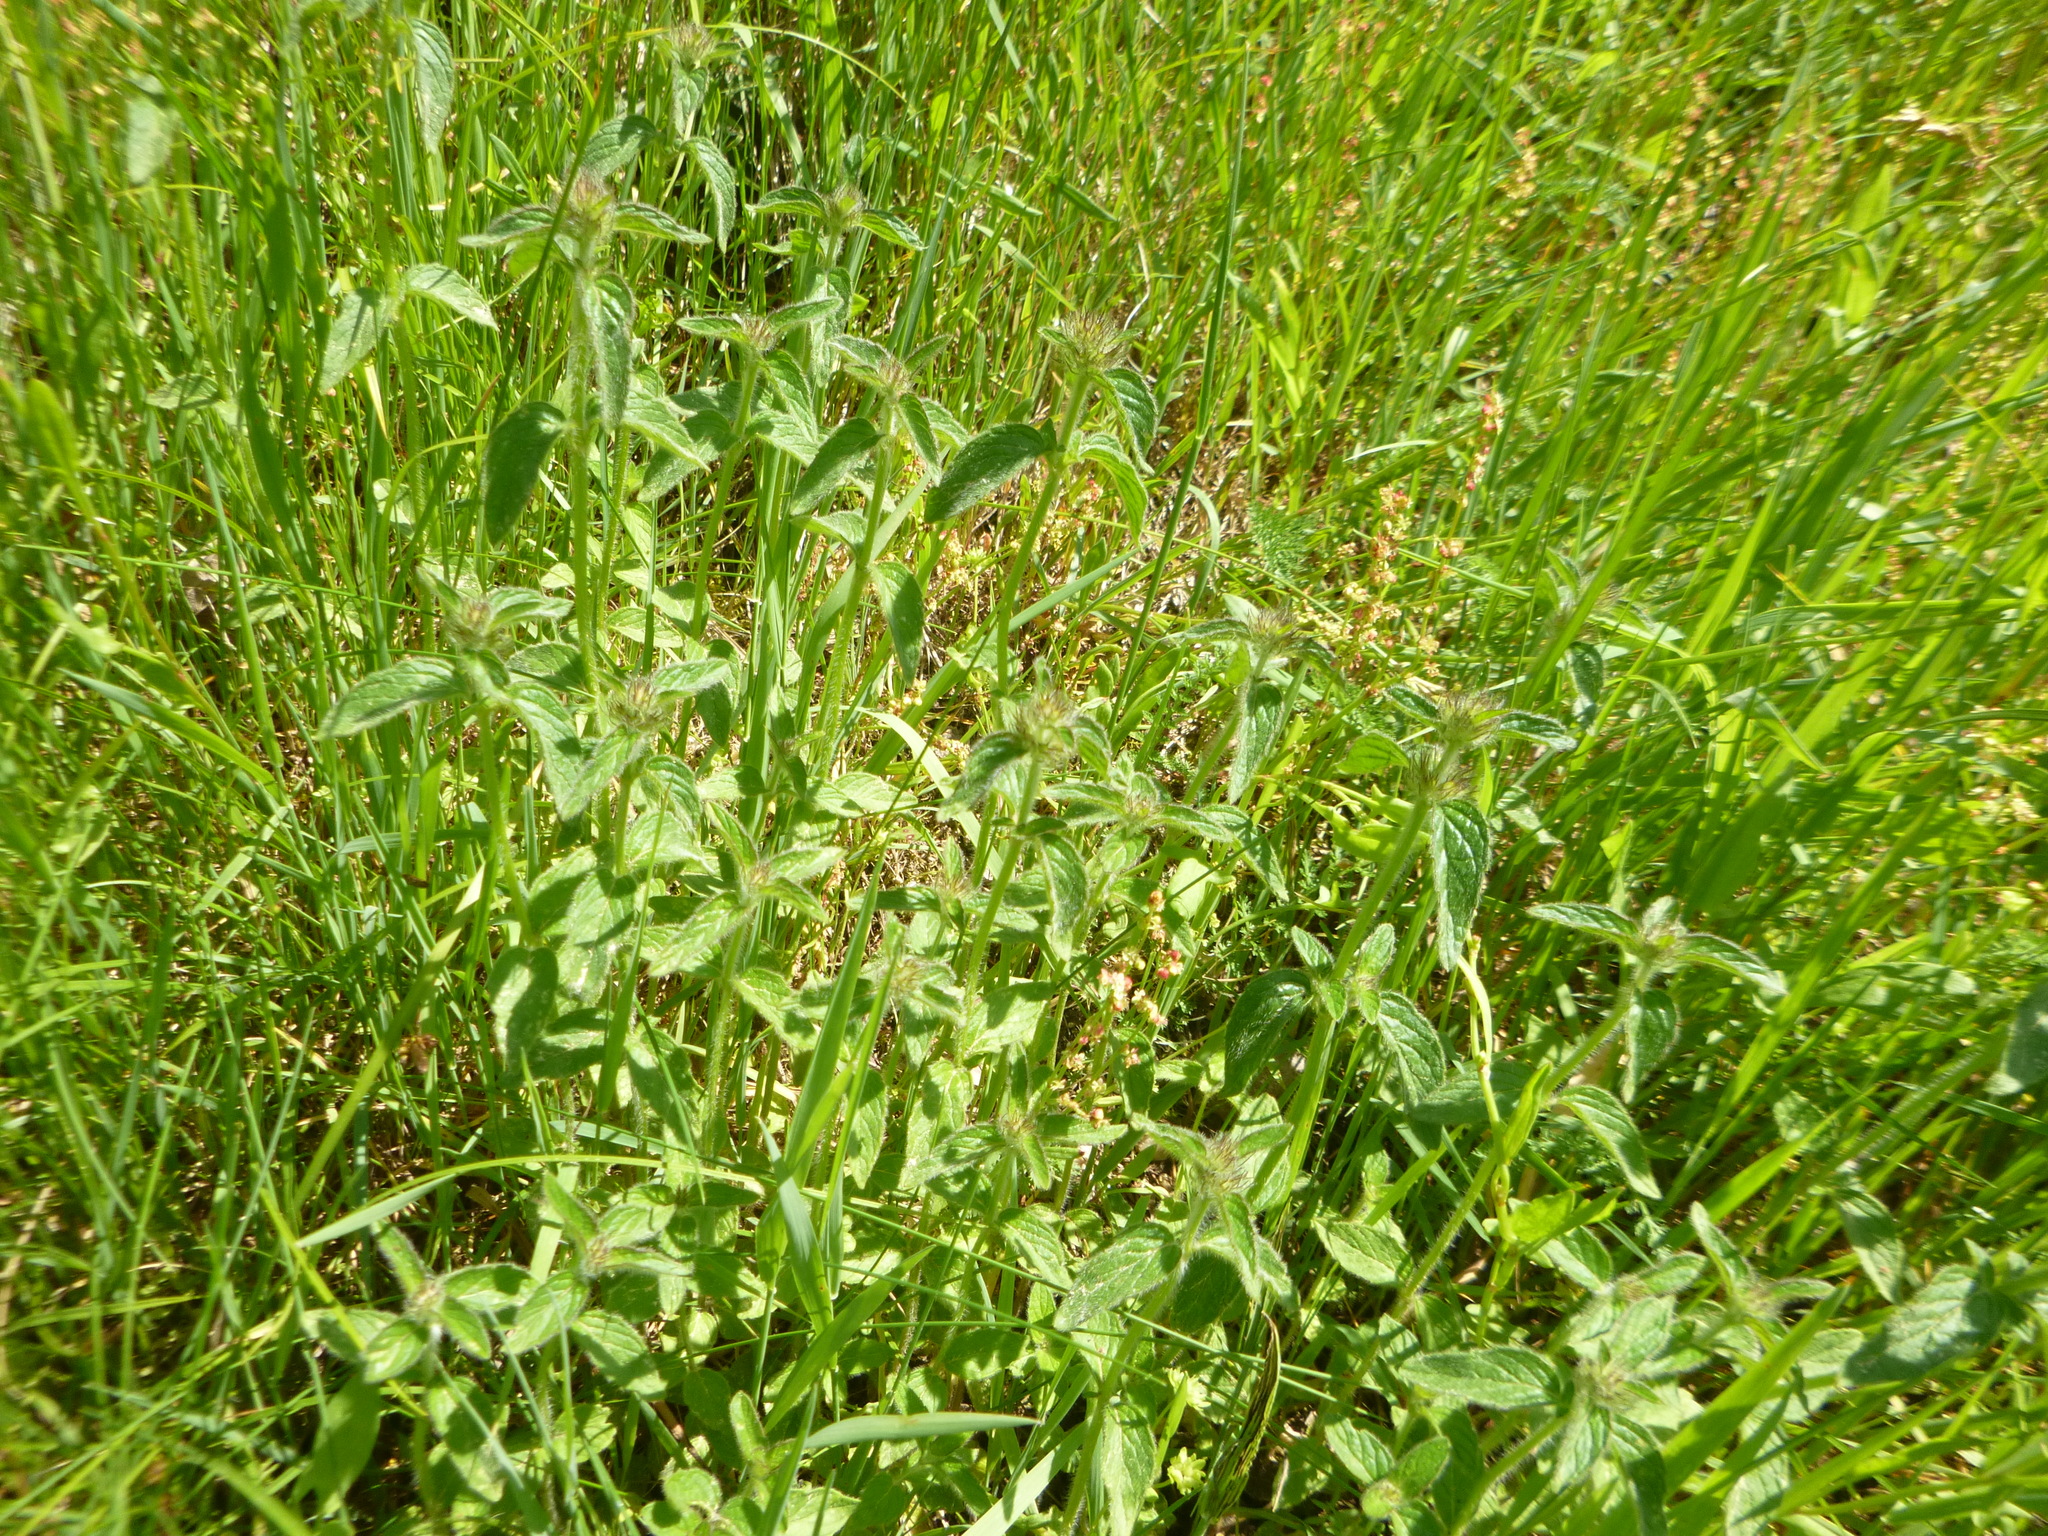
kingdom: Plantae
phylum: Tracheophyta
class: Magnoliopsida
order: Lamiales
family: Lamiaceae
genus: Clinopodium
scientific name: Clinopodium vulgare
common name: Wild basil
